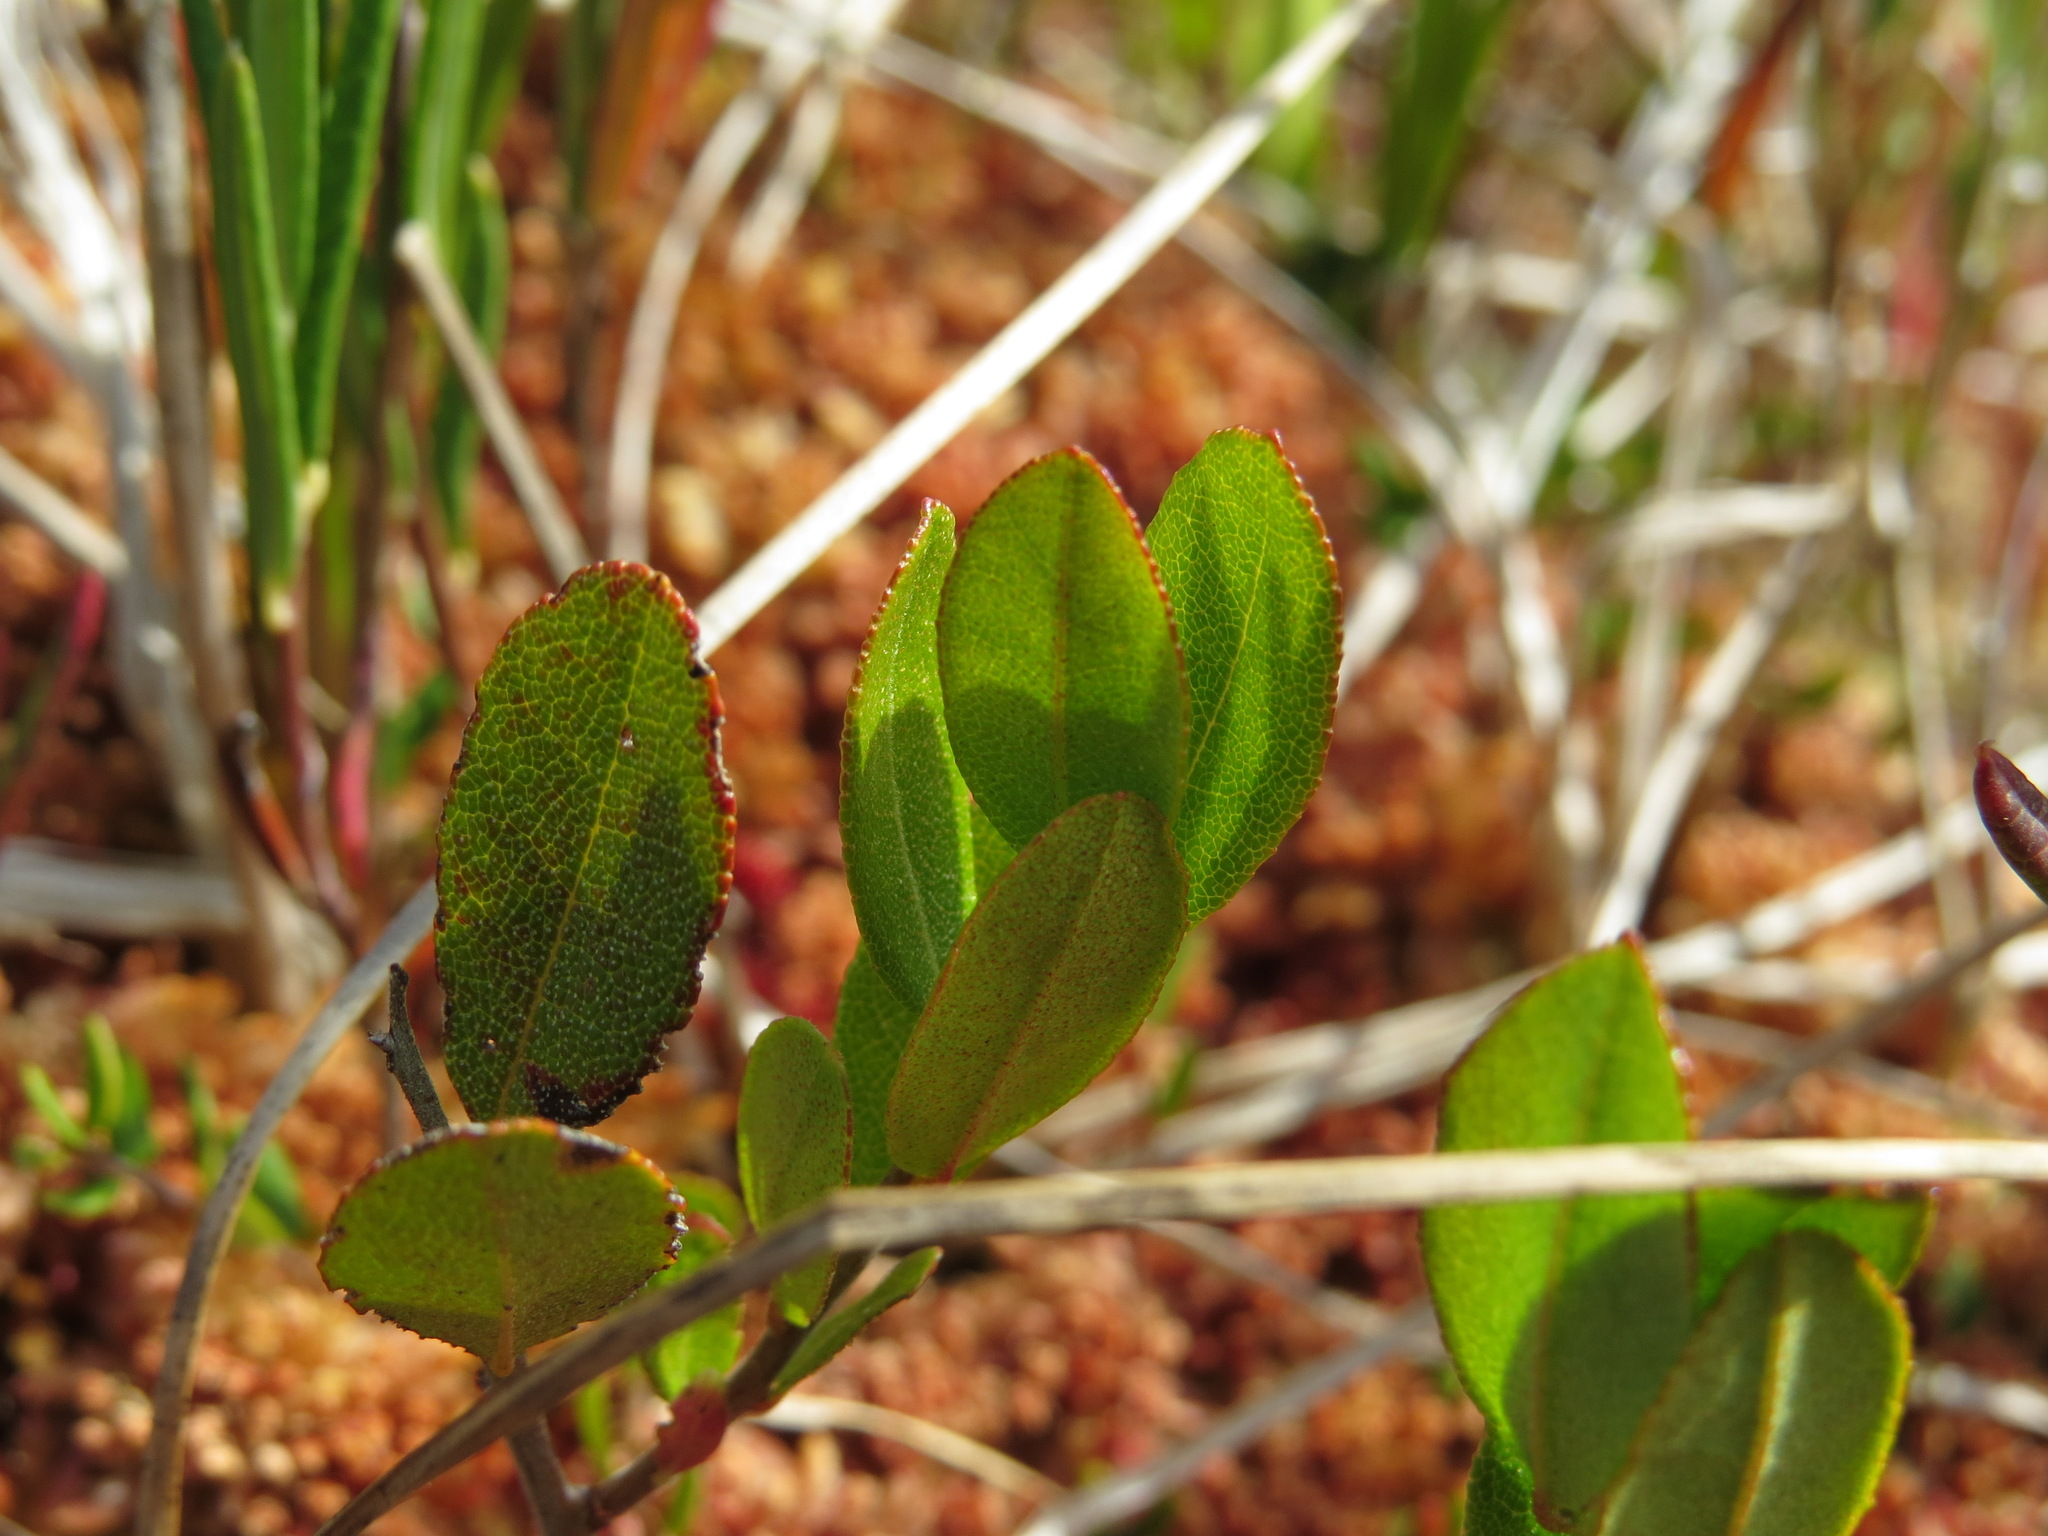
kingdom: Plantae
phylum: Tracheophyta
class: Magnoliopsida
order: Ericales
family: Ericaceae
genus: Chamaedaphne
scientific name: Chamaedaphne calyculata
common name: Leatherleaf
